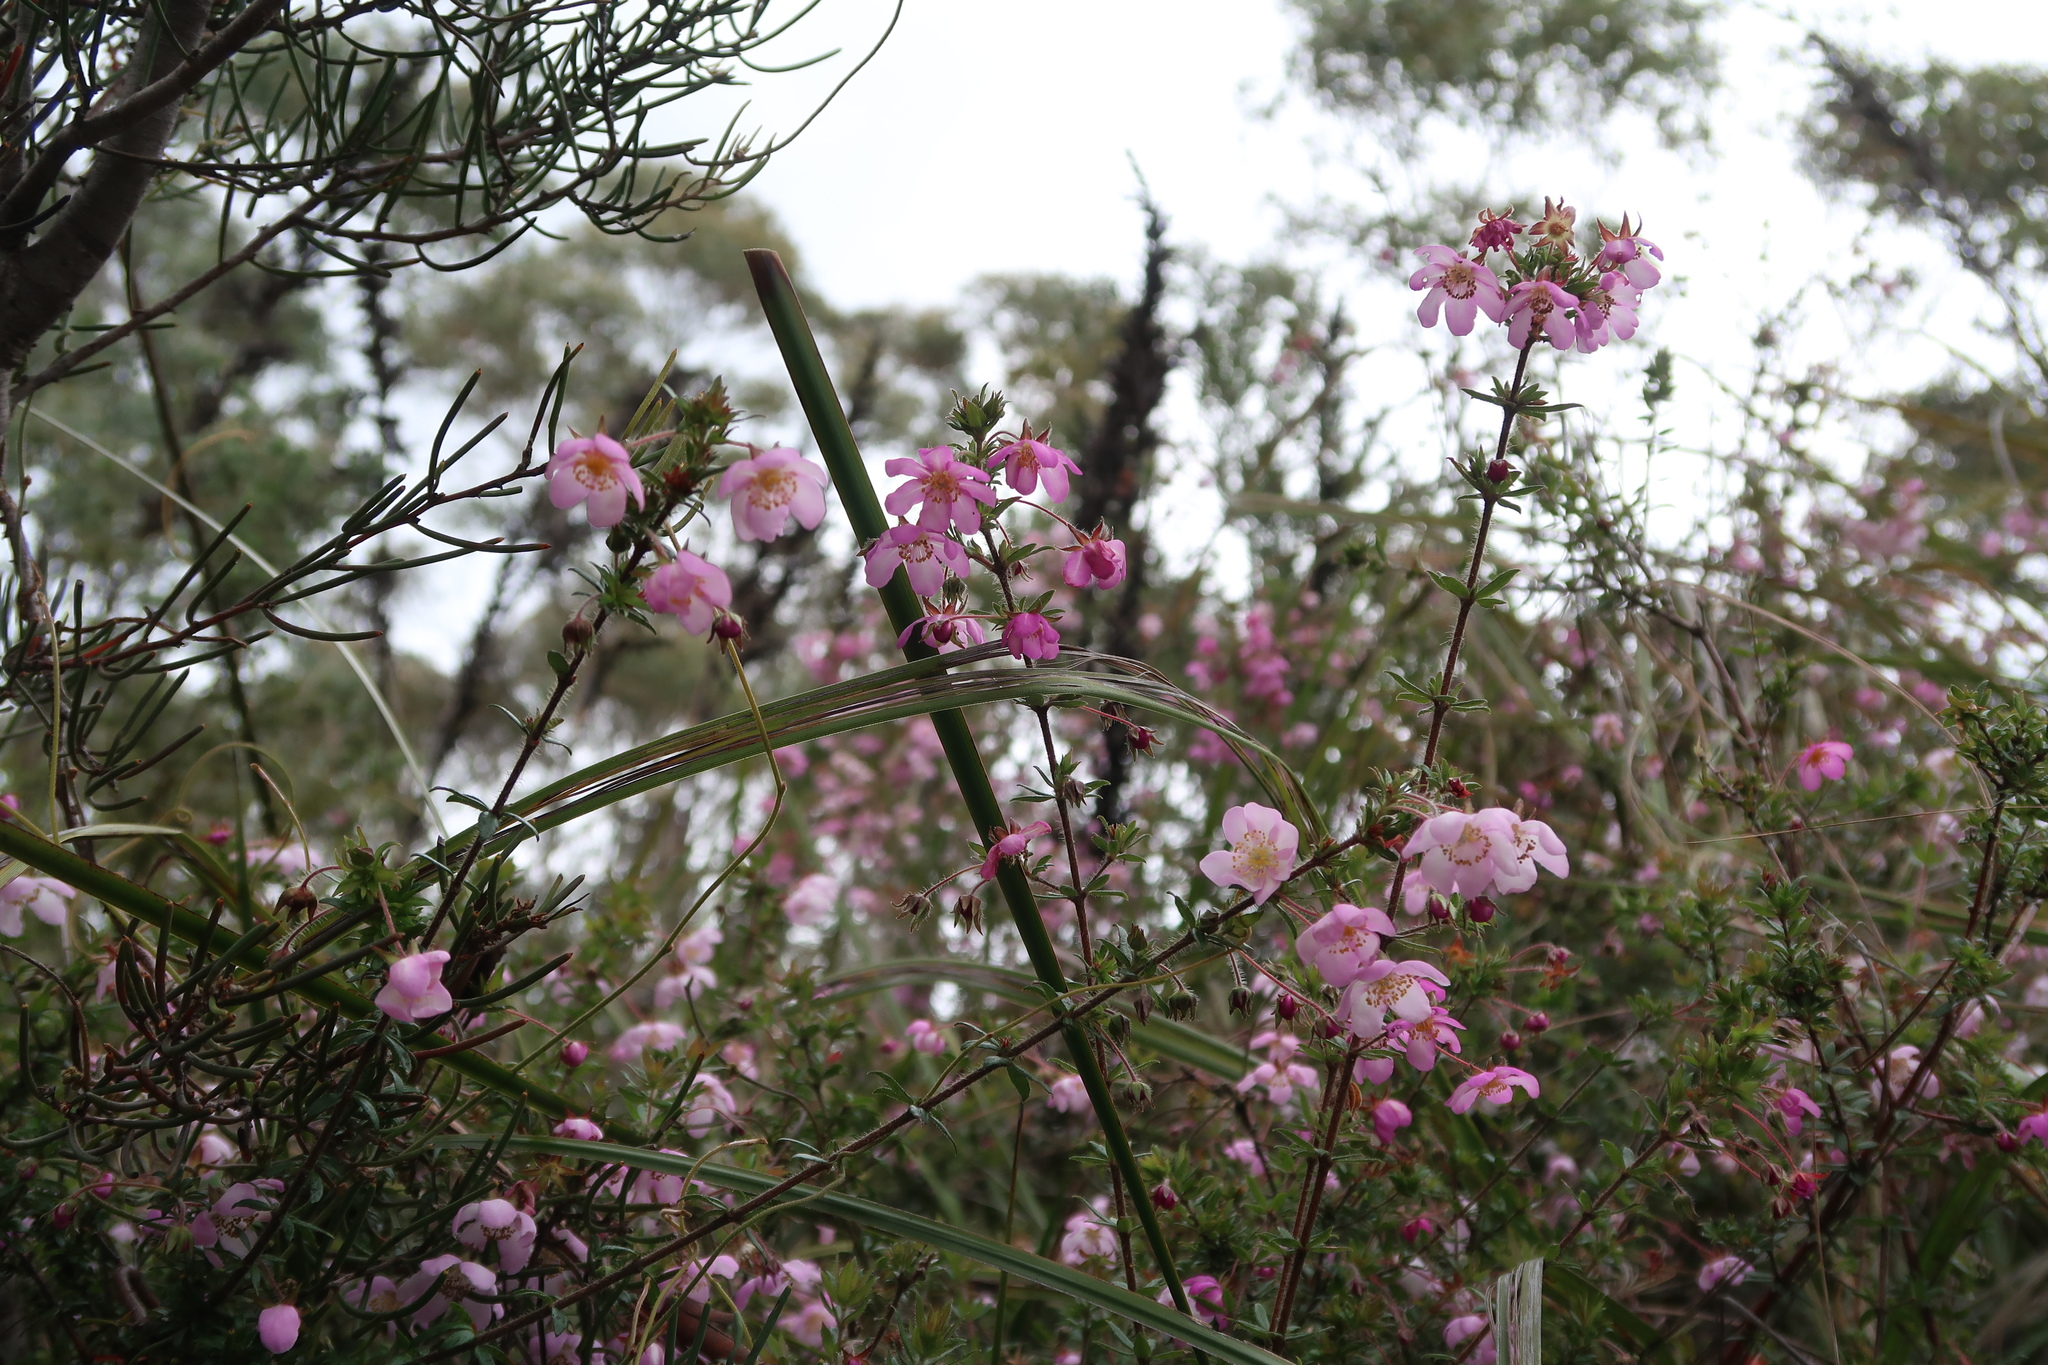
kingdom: Plantae
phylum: Tracheophyta
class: Magnoliopsida
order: Oxalidales
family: Cunoniaceae
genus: Bauera
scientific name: Bauera rubioides
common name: River-rose
